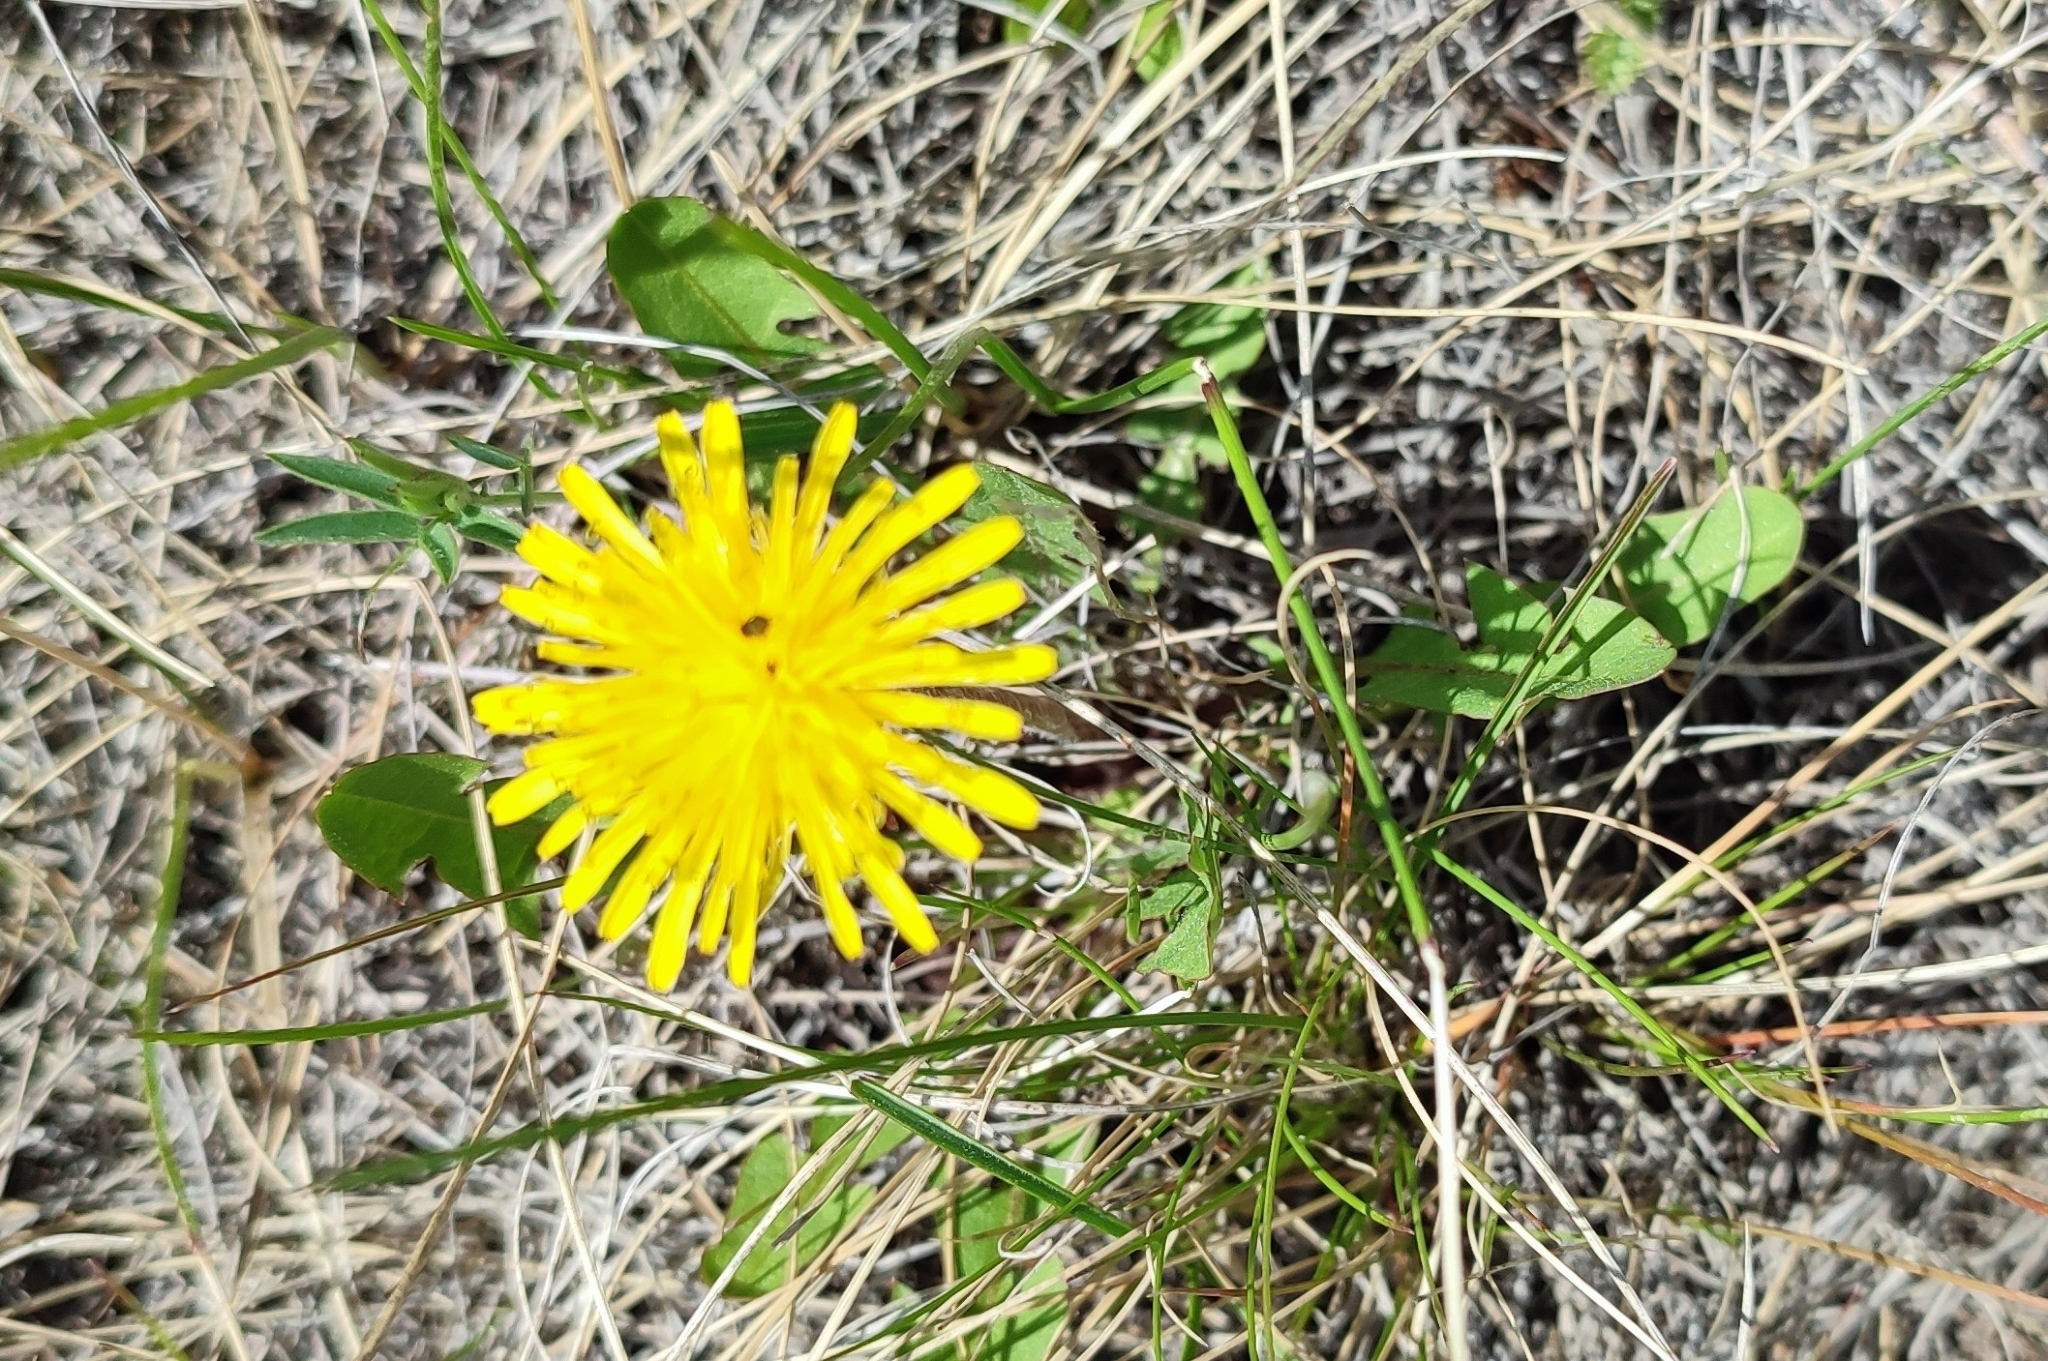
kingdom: Plantae
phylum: Tracheophyta
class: Magnoliopsida
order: Asterales
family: Asteraceae
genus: Taraxacum
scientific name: Taraxacum officinale
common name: Common dandelion
